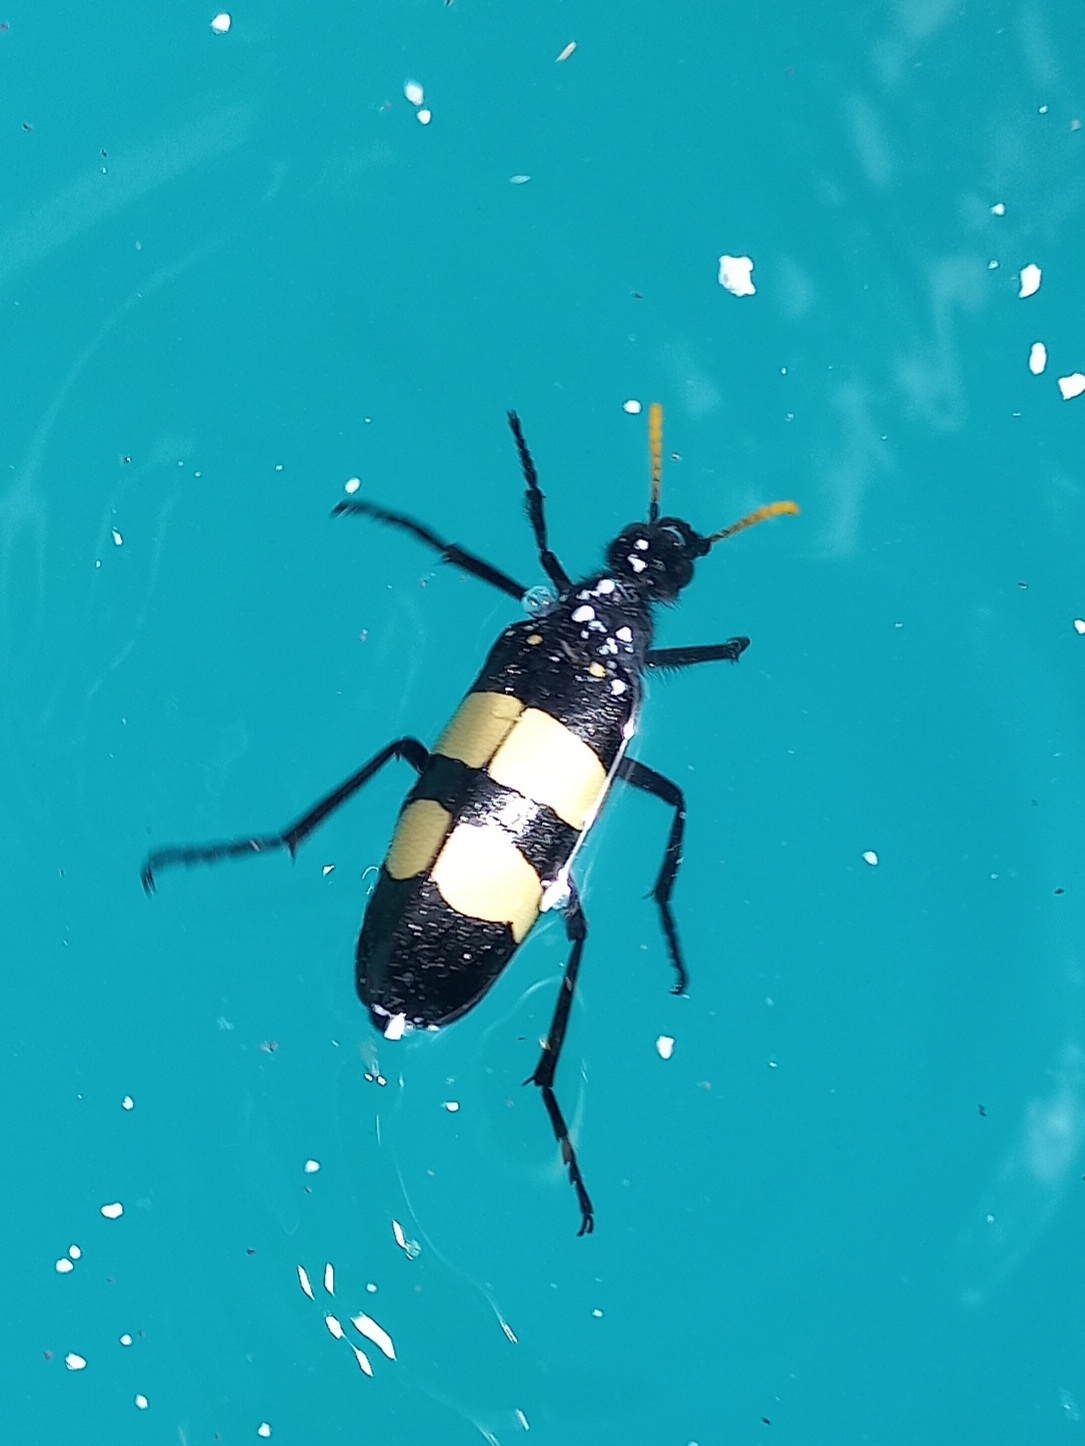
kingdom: Animalia
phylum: Arthropoda
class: Insecta
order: Coleoptera
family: Meloidae
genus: Hycleus
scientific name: Hycleus
